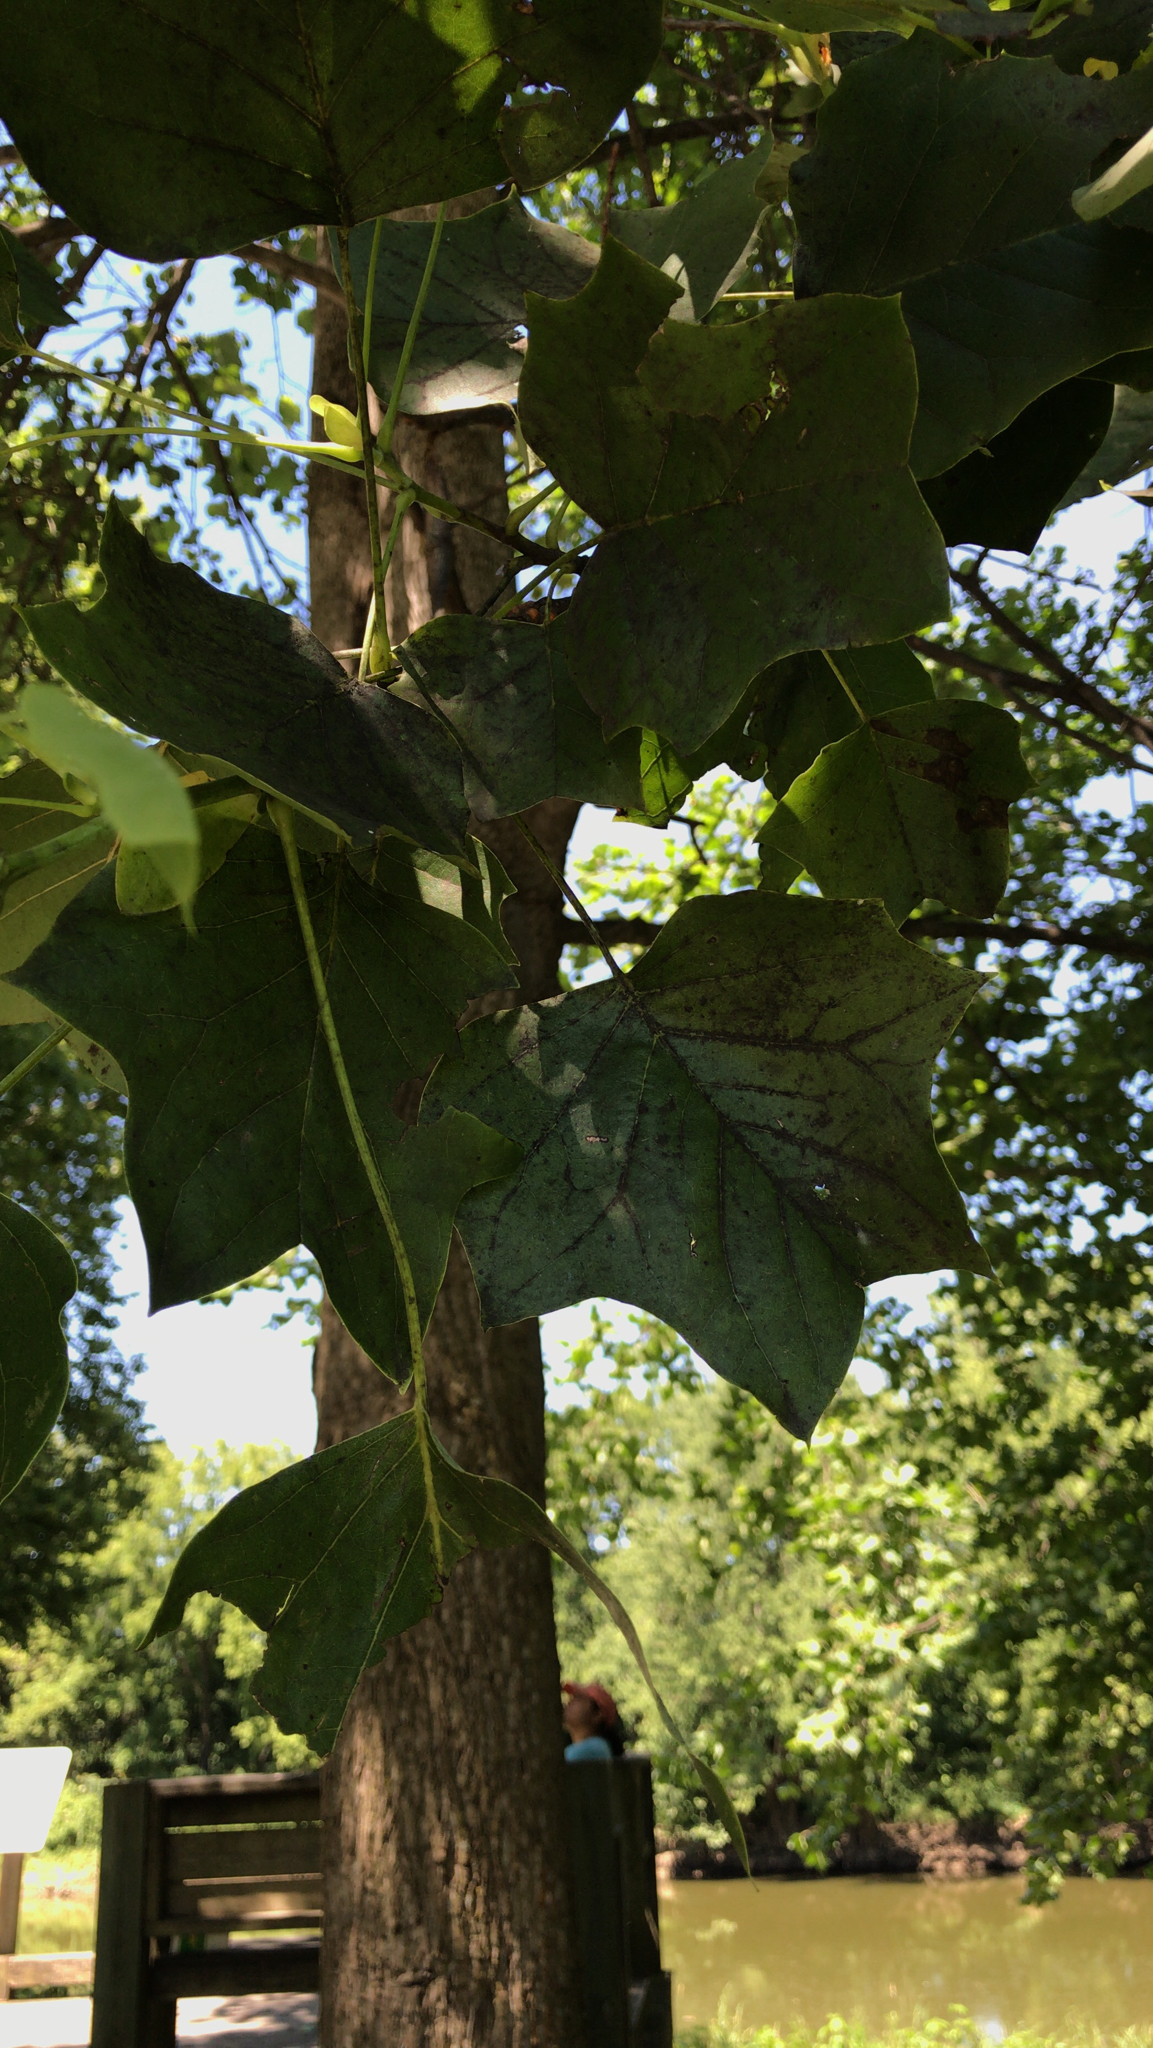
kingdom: Plantae
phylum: Tracheophyta
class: Magnoliopsida
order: Magnoliales
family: Magnoliaceae
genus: Liriodendron
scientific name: Liriodendron tulipifera
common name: Tulip tree
